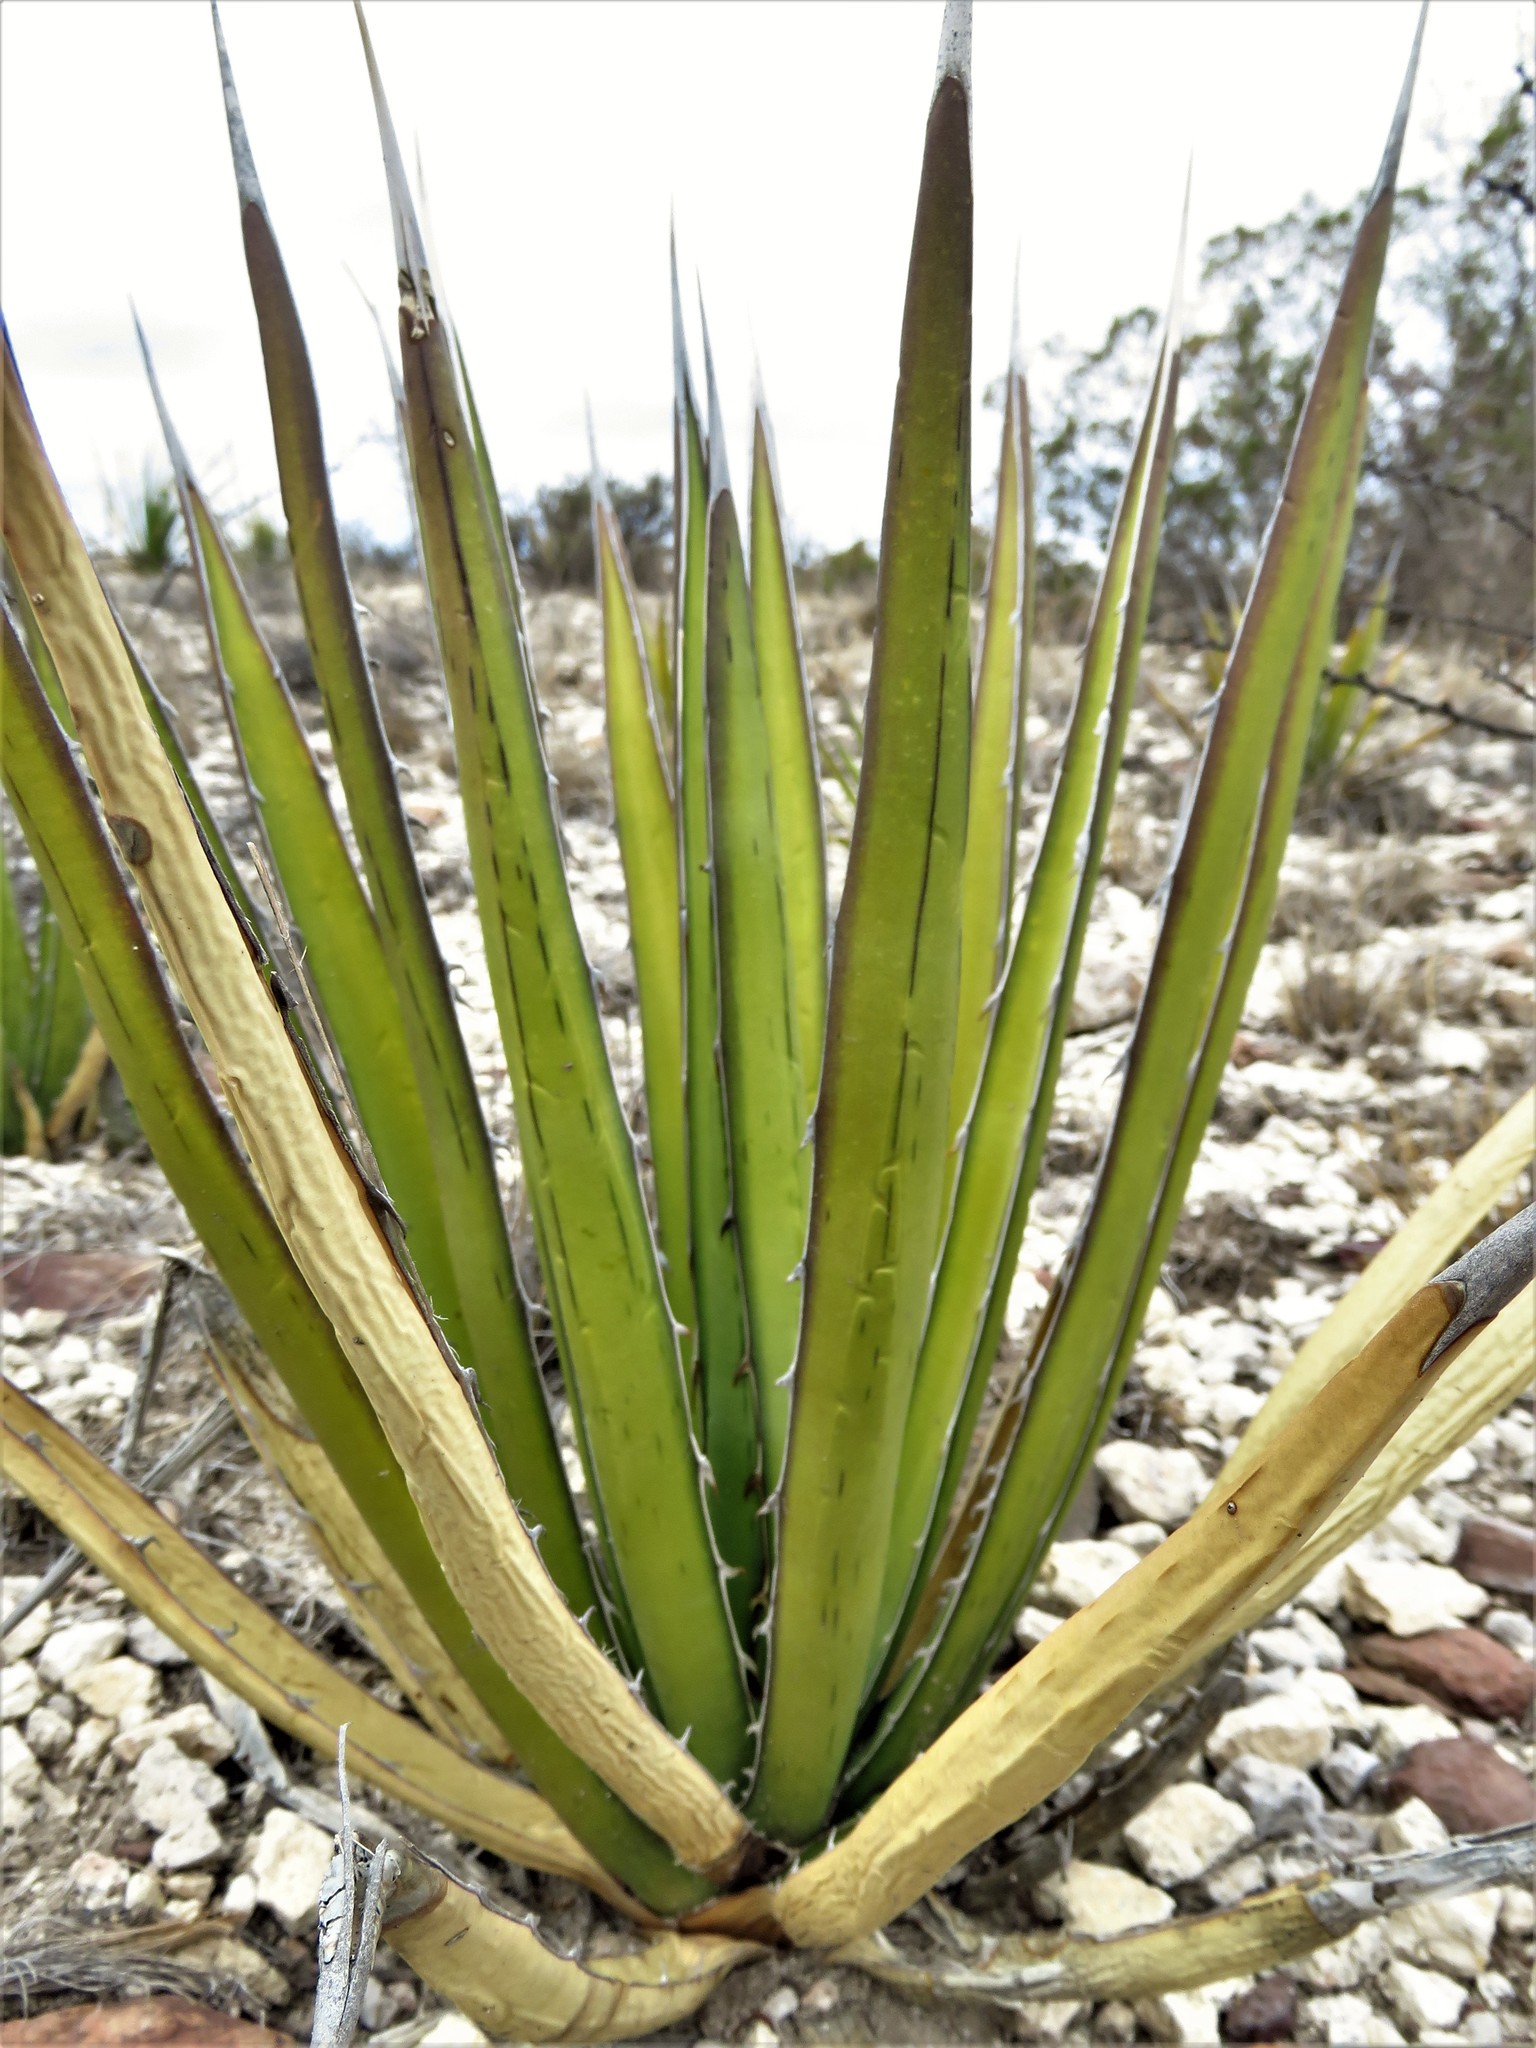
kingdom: Plantae
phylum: Tracheophyta
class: Liliopsida
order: Asparagales
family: Asparagaceae
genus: Agave
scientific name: Agave lechuguilla
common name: Lecheguilla agave
